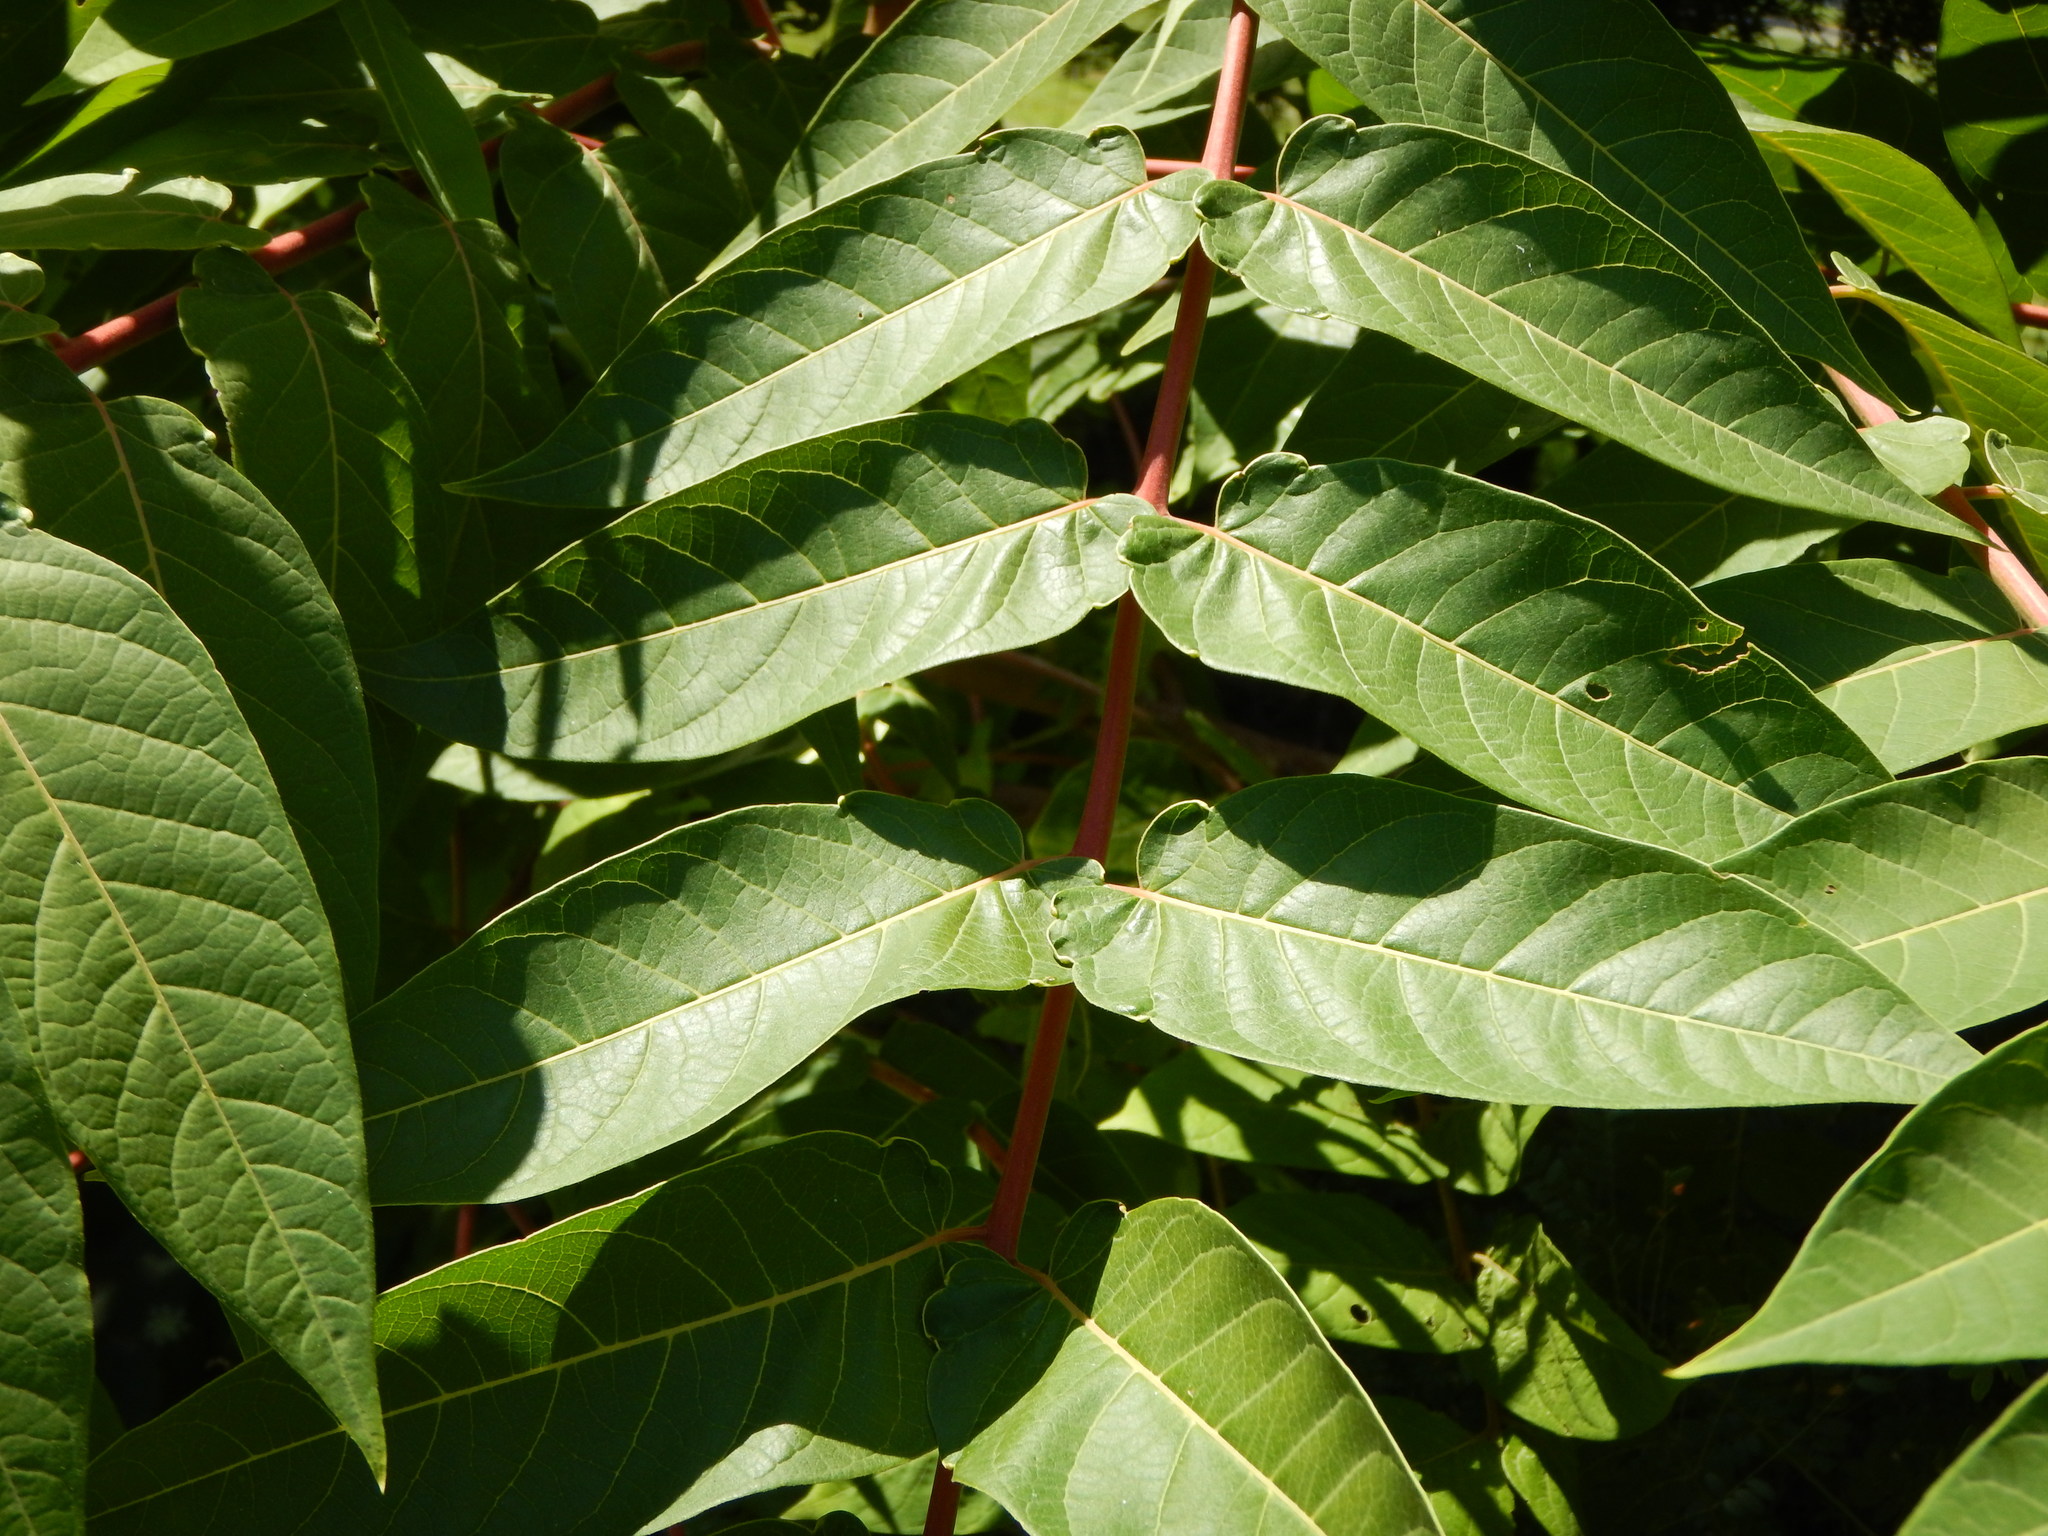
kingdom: Plantae
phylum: Tracheophyta
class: Magnoliopsida
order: Sapindales
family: Simaroubaceae
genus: Ailanthus
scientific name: Ailanthus altissima
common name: Tree-of-heaven
